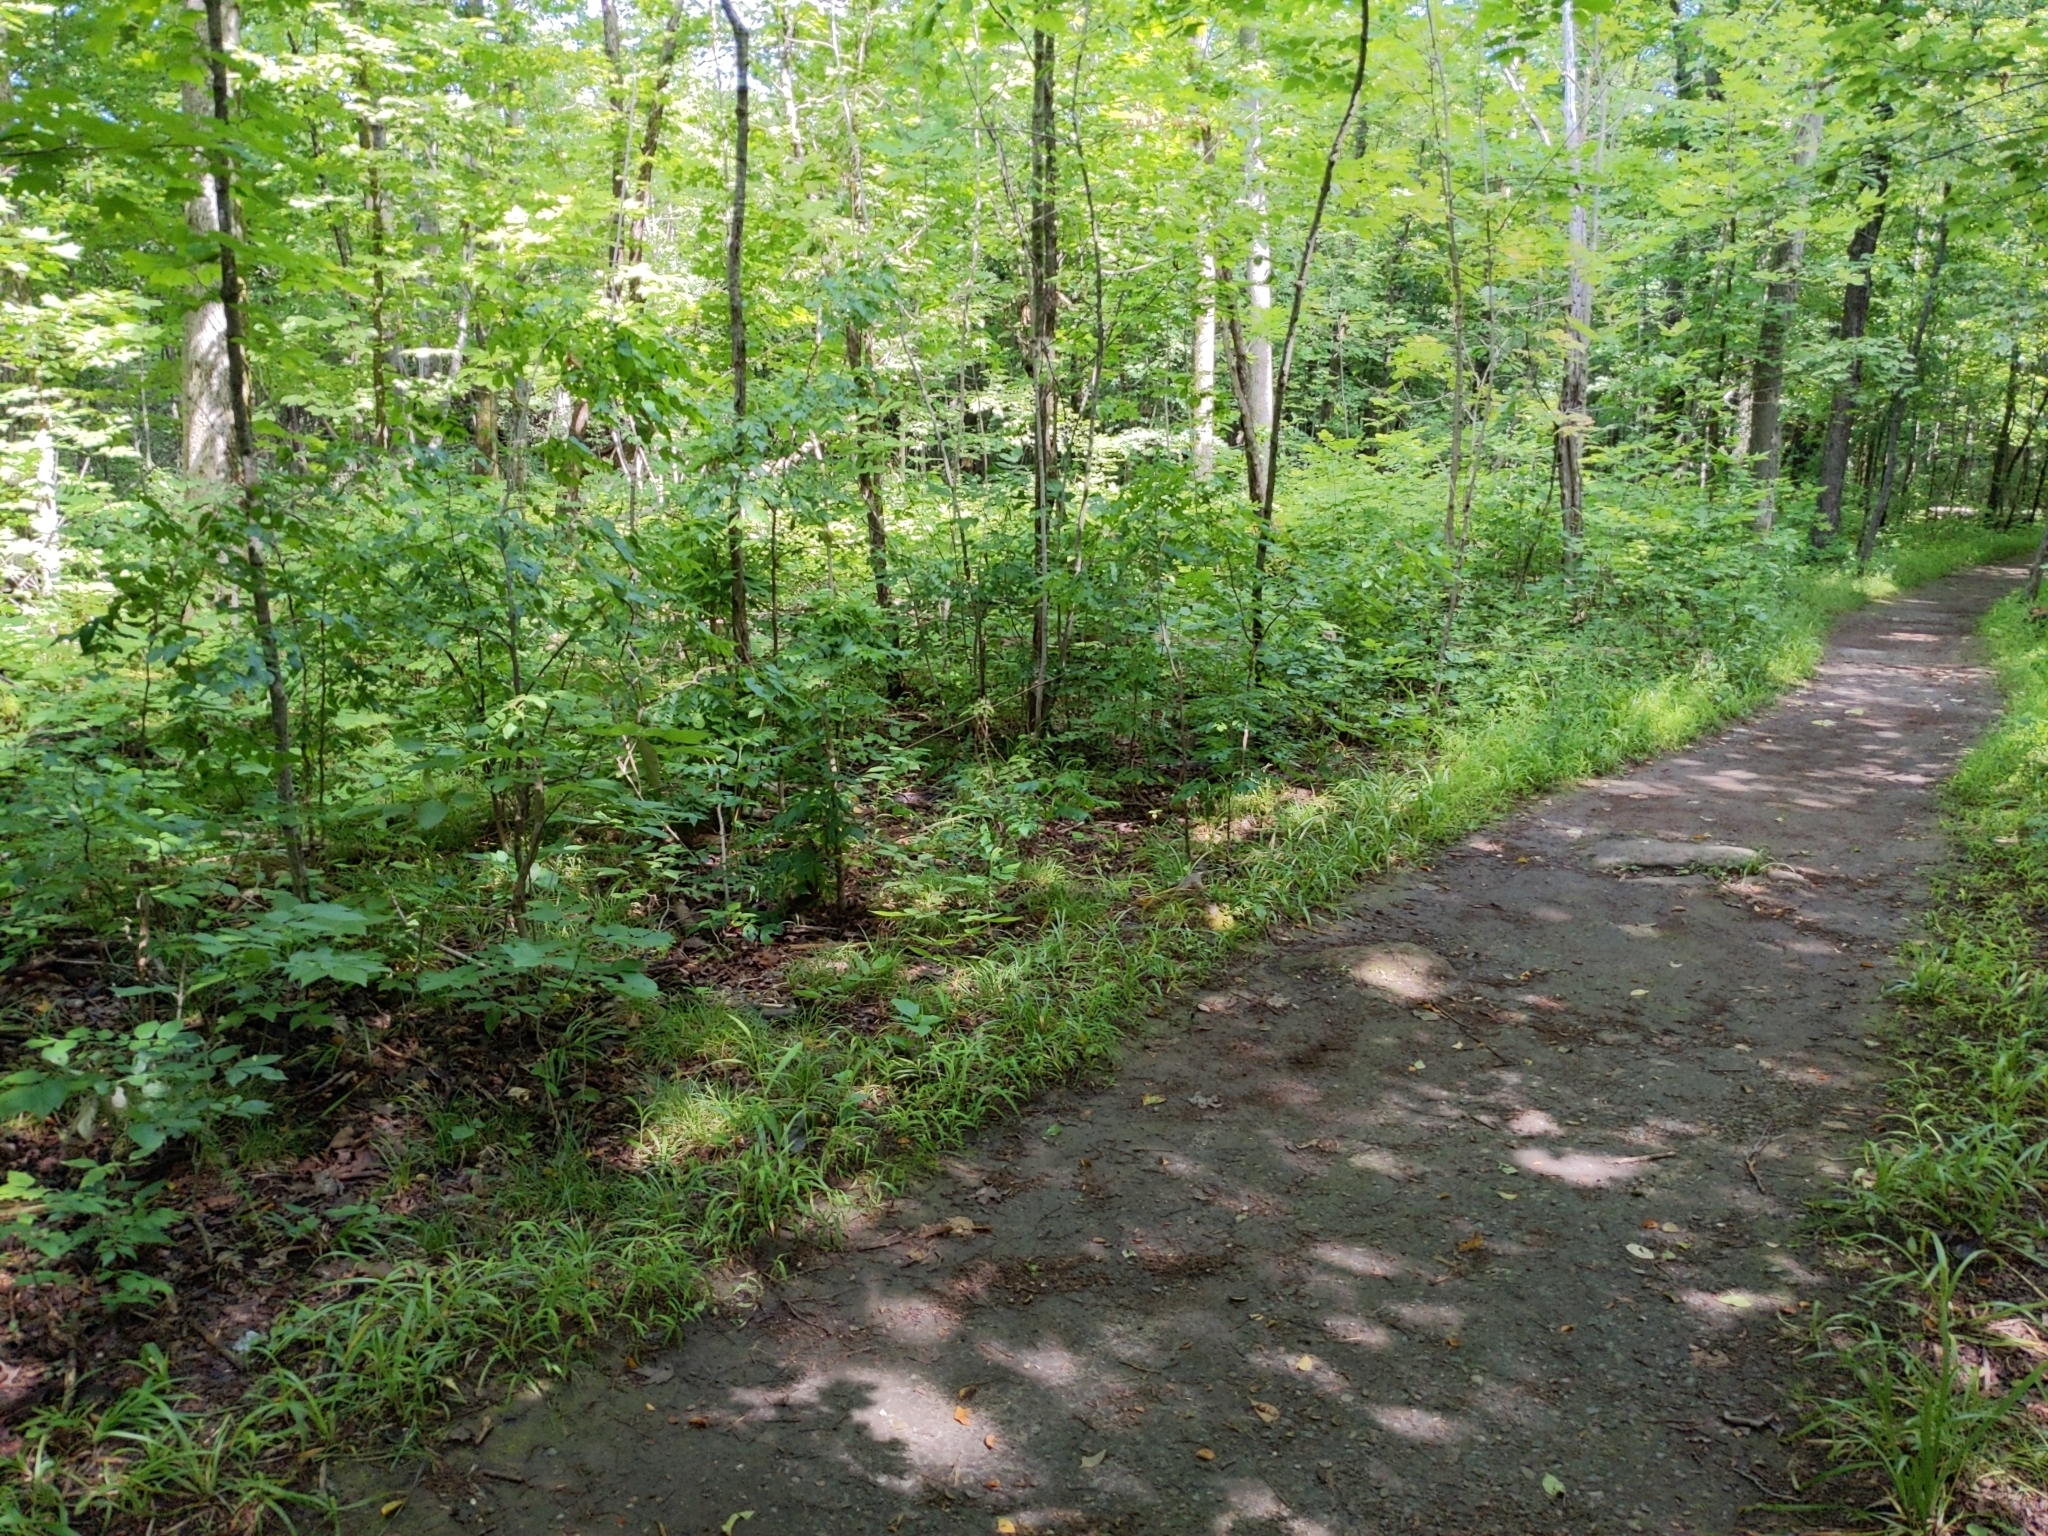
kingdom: Plantae
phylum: Tracheophyta
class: Magnoliopsida
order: Sapindales
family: Rutaceae
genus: Zanthoxylum
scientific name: Zanthoxylum americanum
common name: Northern prickly-ash
